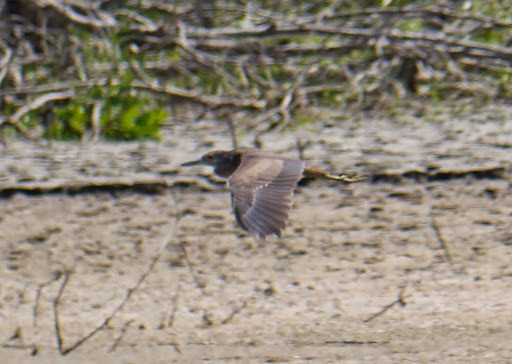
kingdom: Animalia
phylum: Chordata
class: Aves
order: Pelecaniformes
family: Ardeidae
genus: Nycticorax
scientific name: Nycticorax nycticorax
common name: Black-crowned night heron
